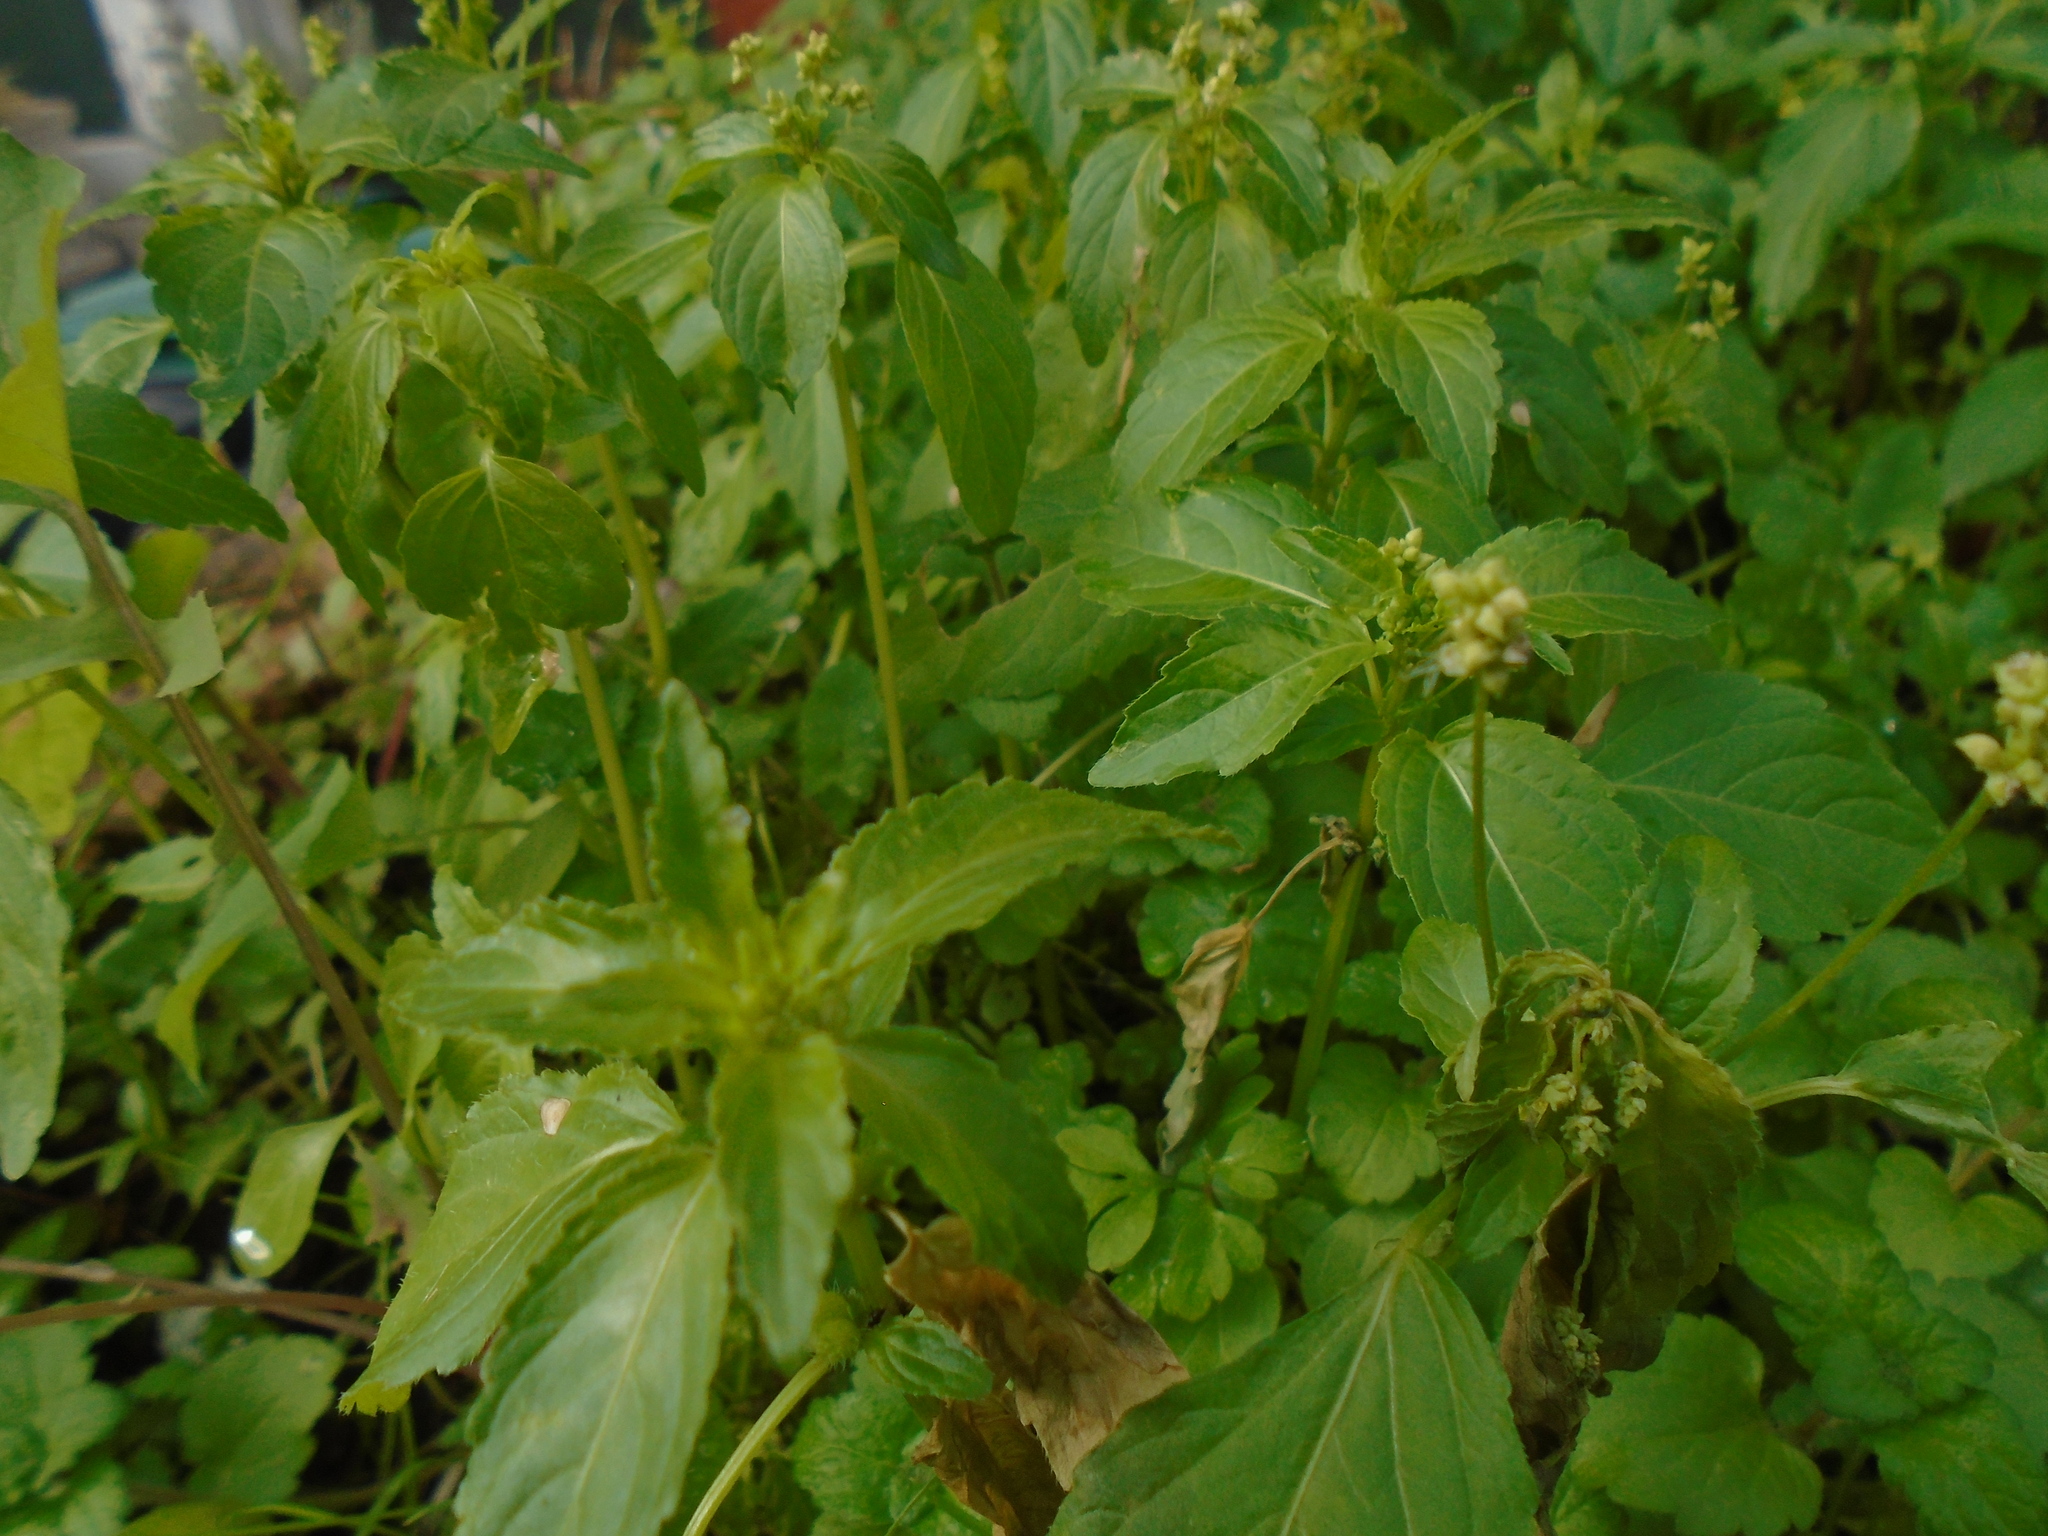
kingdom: Plantae
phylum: Tracheophyta
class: Magnoliopsida
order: Malpighiales
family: Euphorbiaceae
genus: Mercurialis
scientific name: Mercurialis annua
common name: Annual mercury
